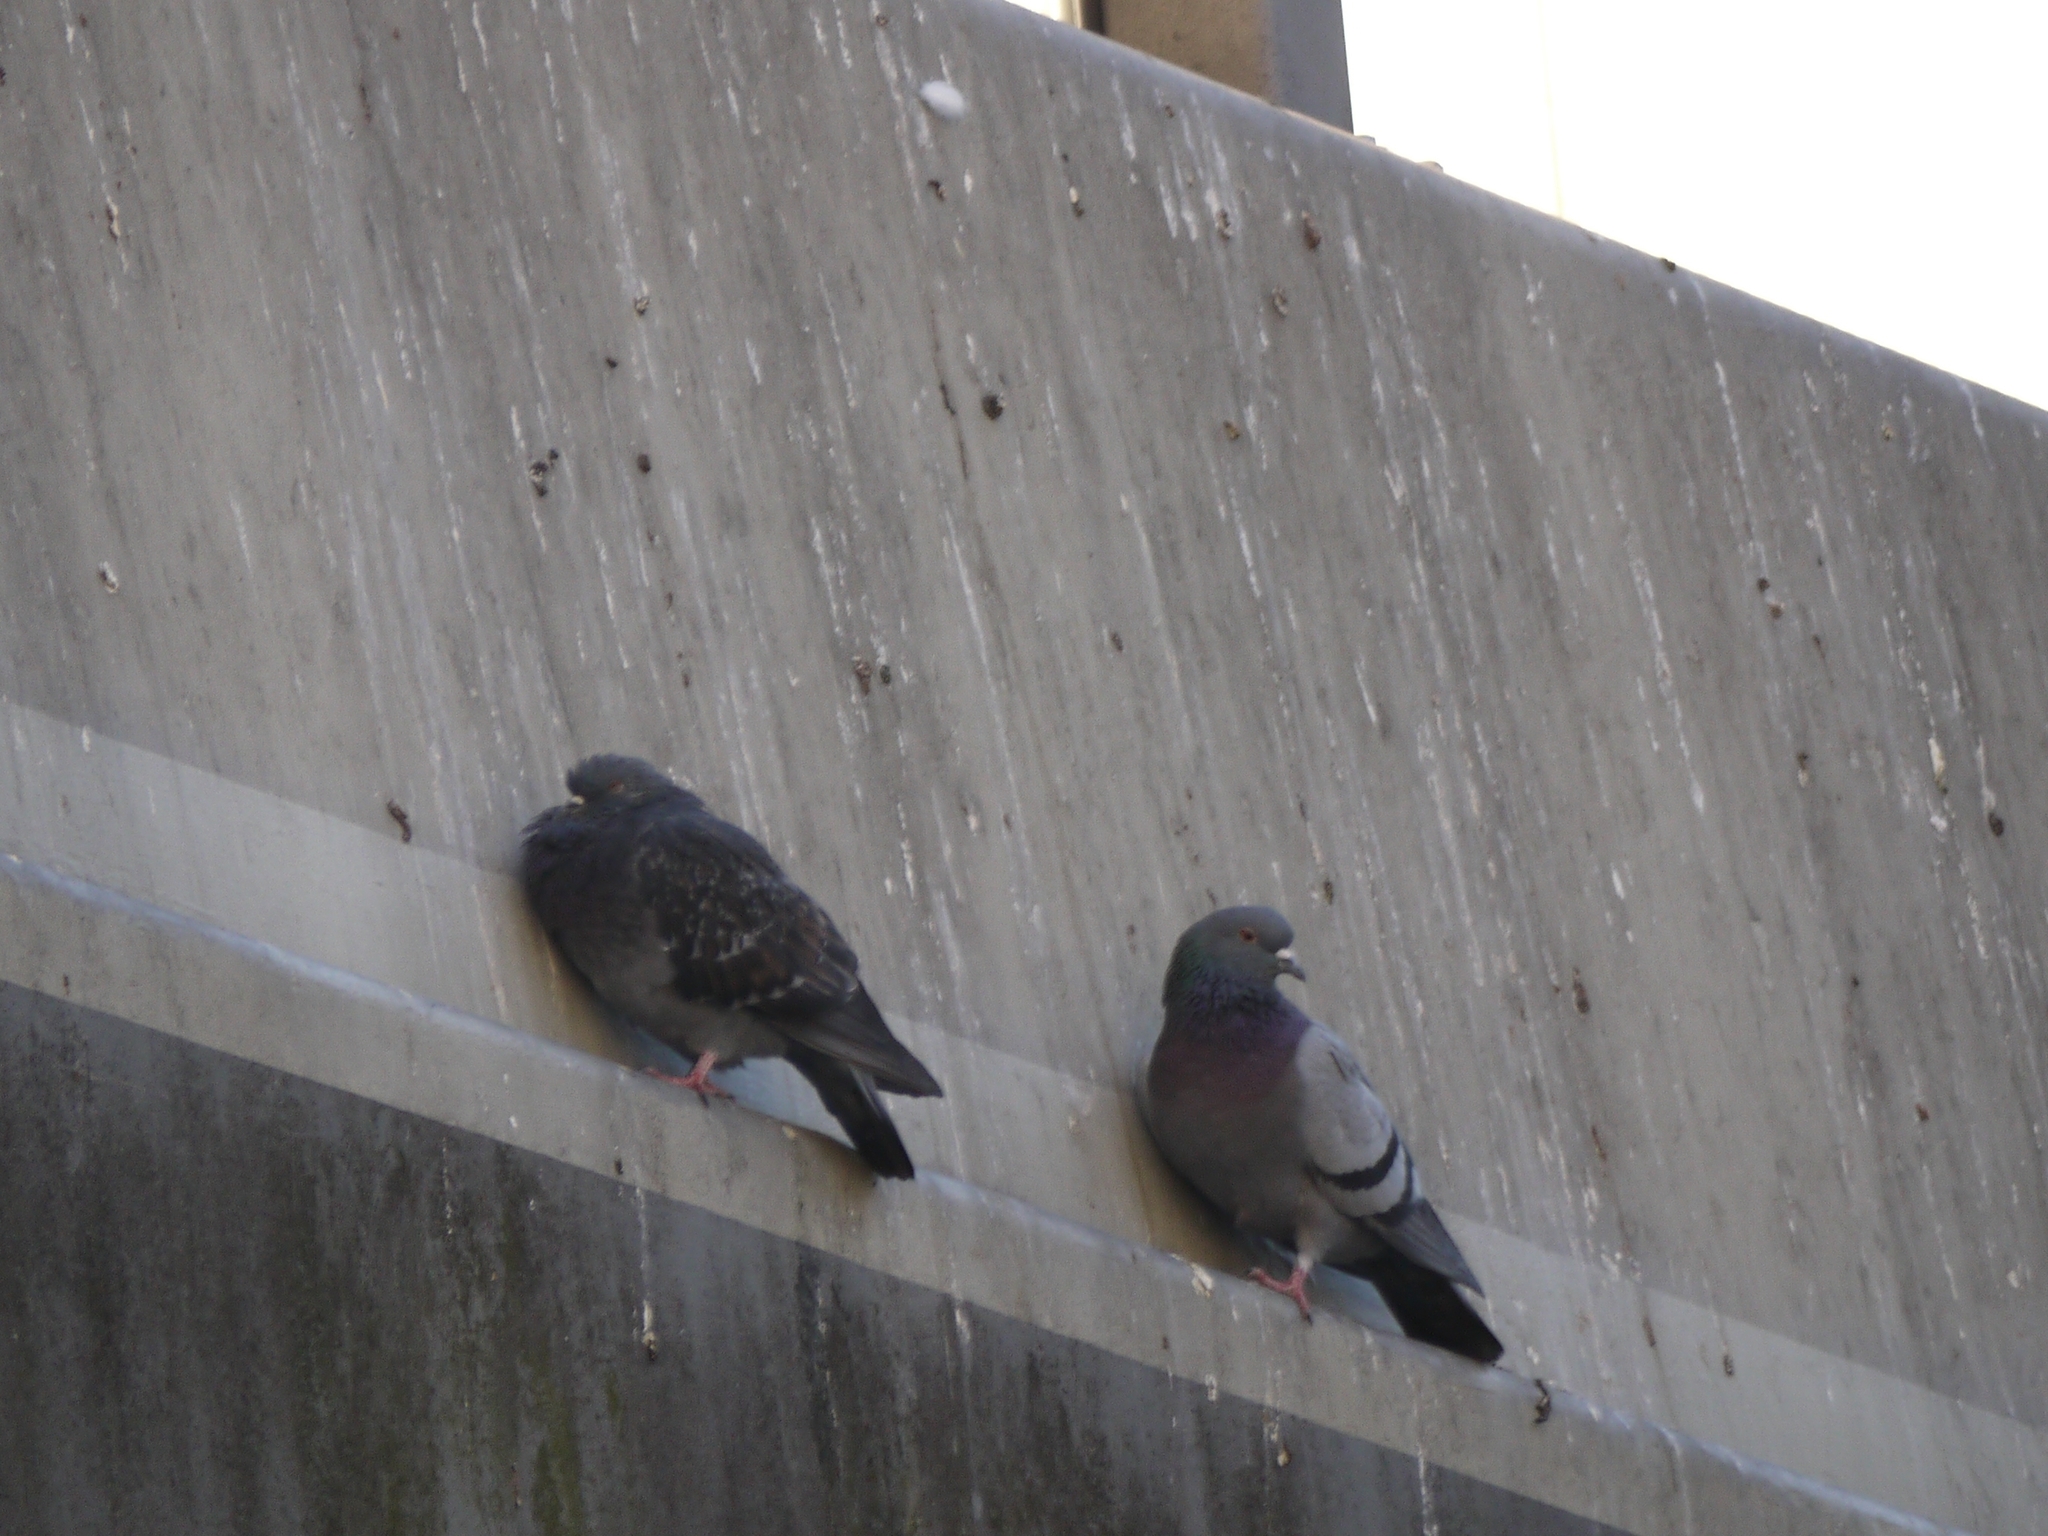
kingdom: Animalia
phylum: Chordata
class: Aves
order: Columbiformes
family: Columbidae
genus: Columba
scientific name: Columba livia
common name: Rock pigeon
